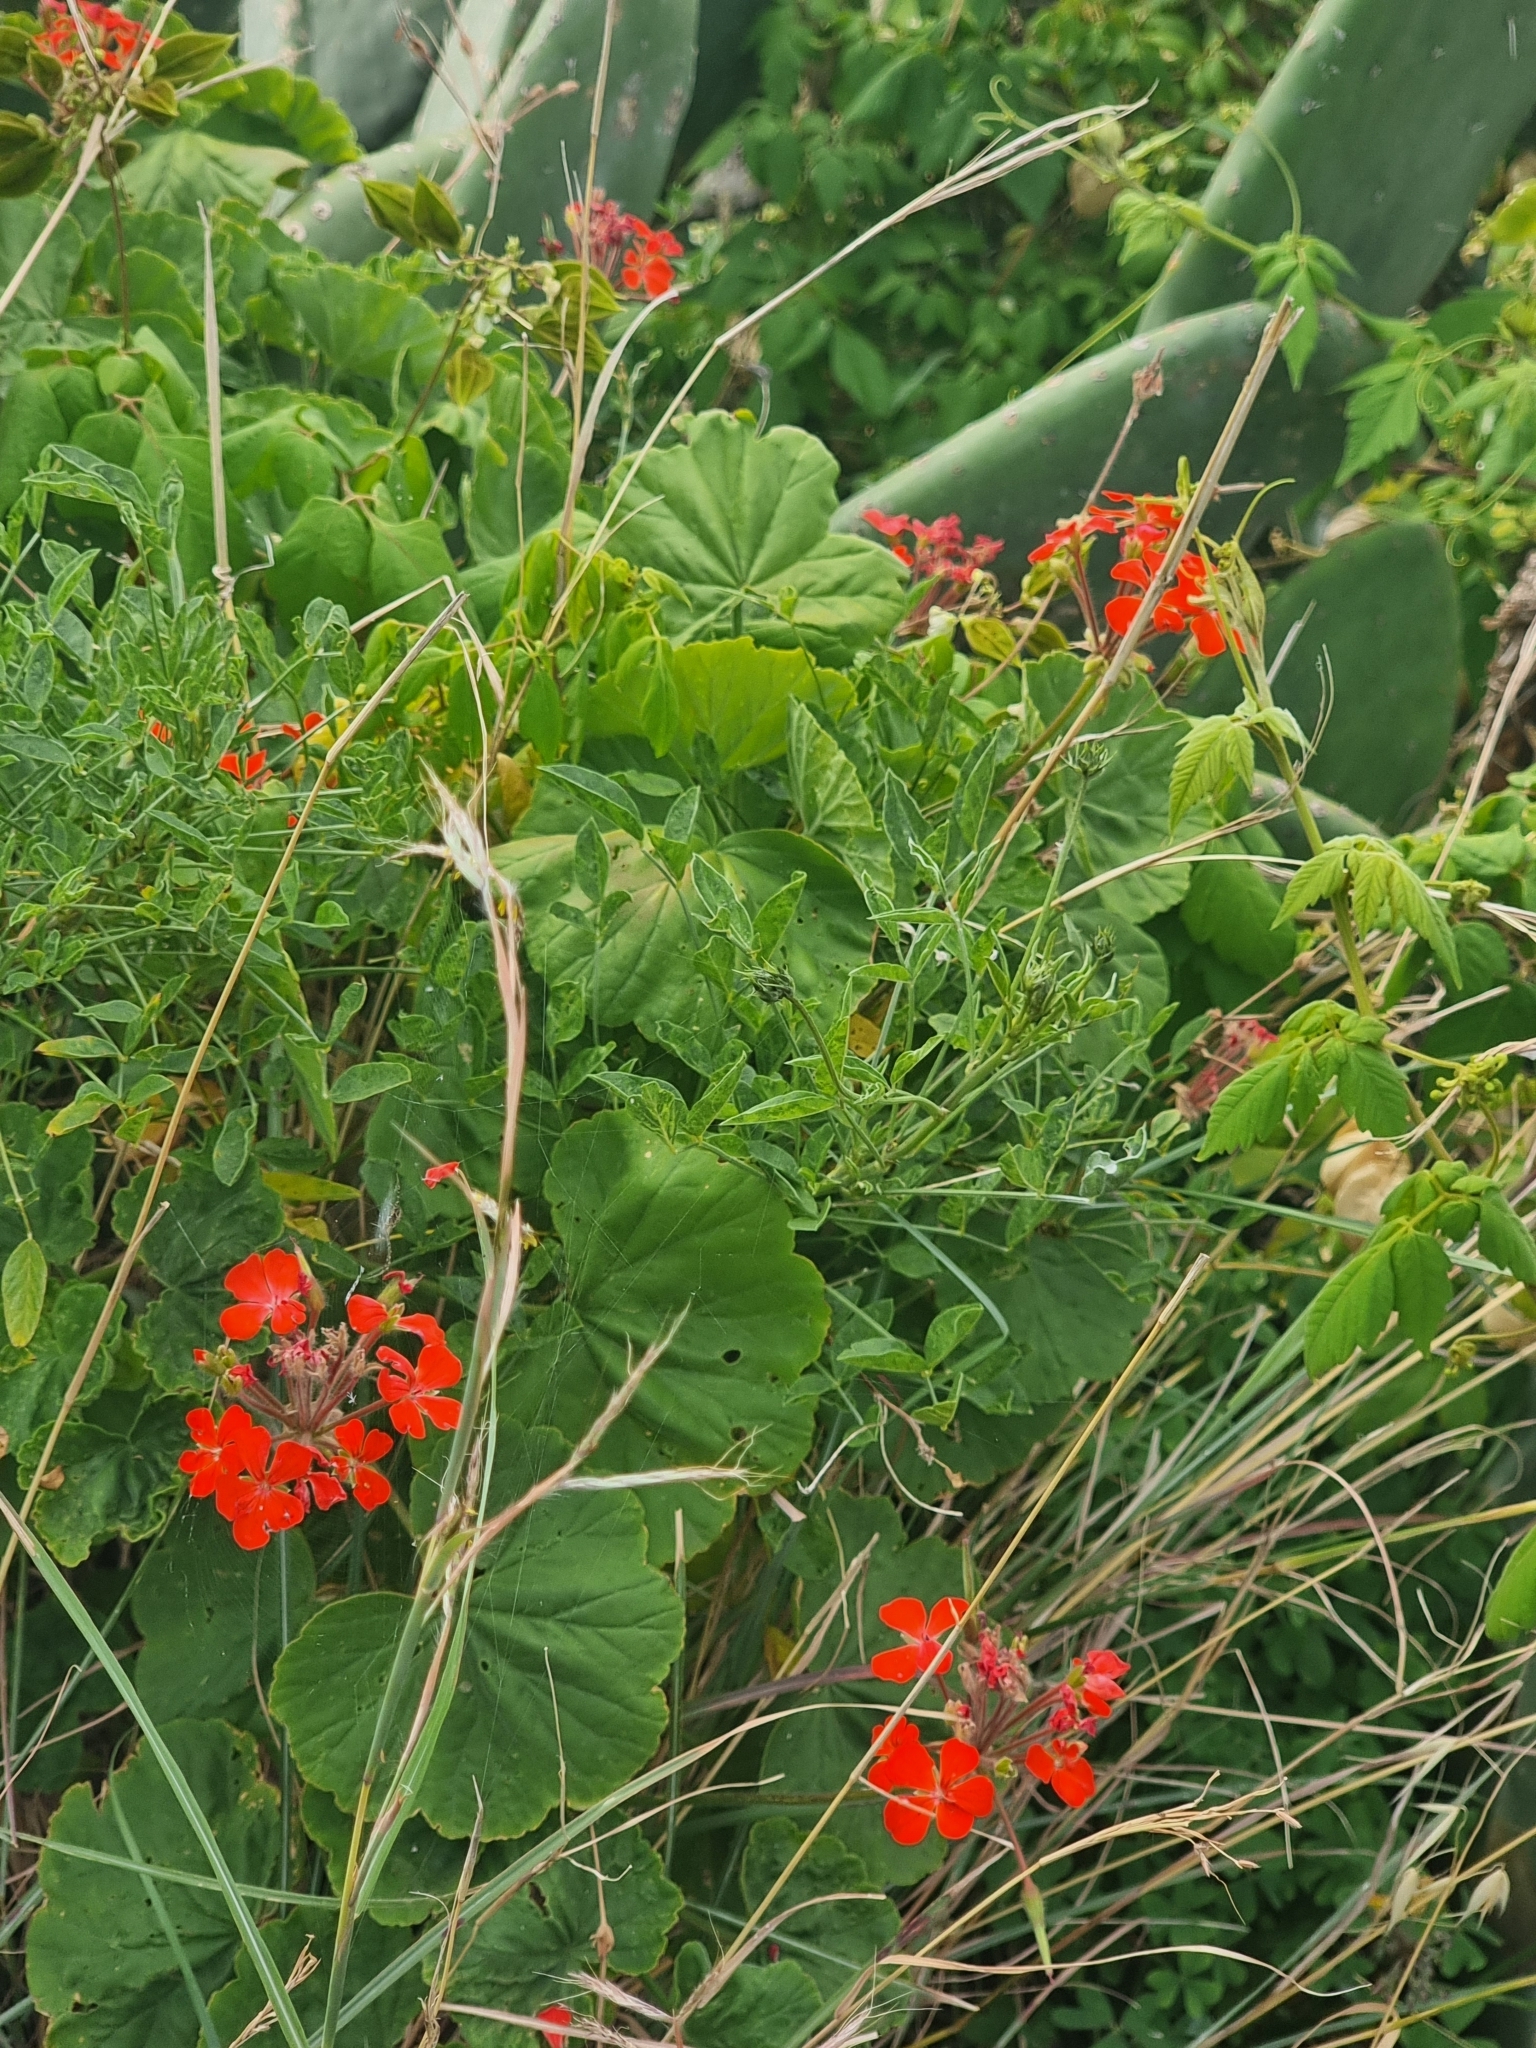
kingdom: Plantae
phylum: Tracheophyta
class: Magnoliopsida
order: Geraniales
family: Geraniaceae
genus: Pelargonium
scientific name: Pelargonium hybridum
